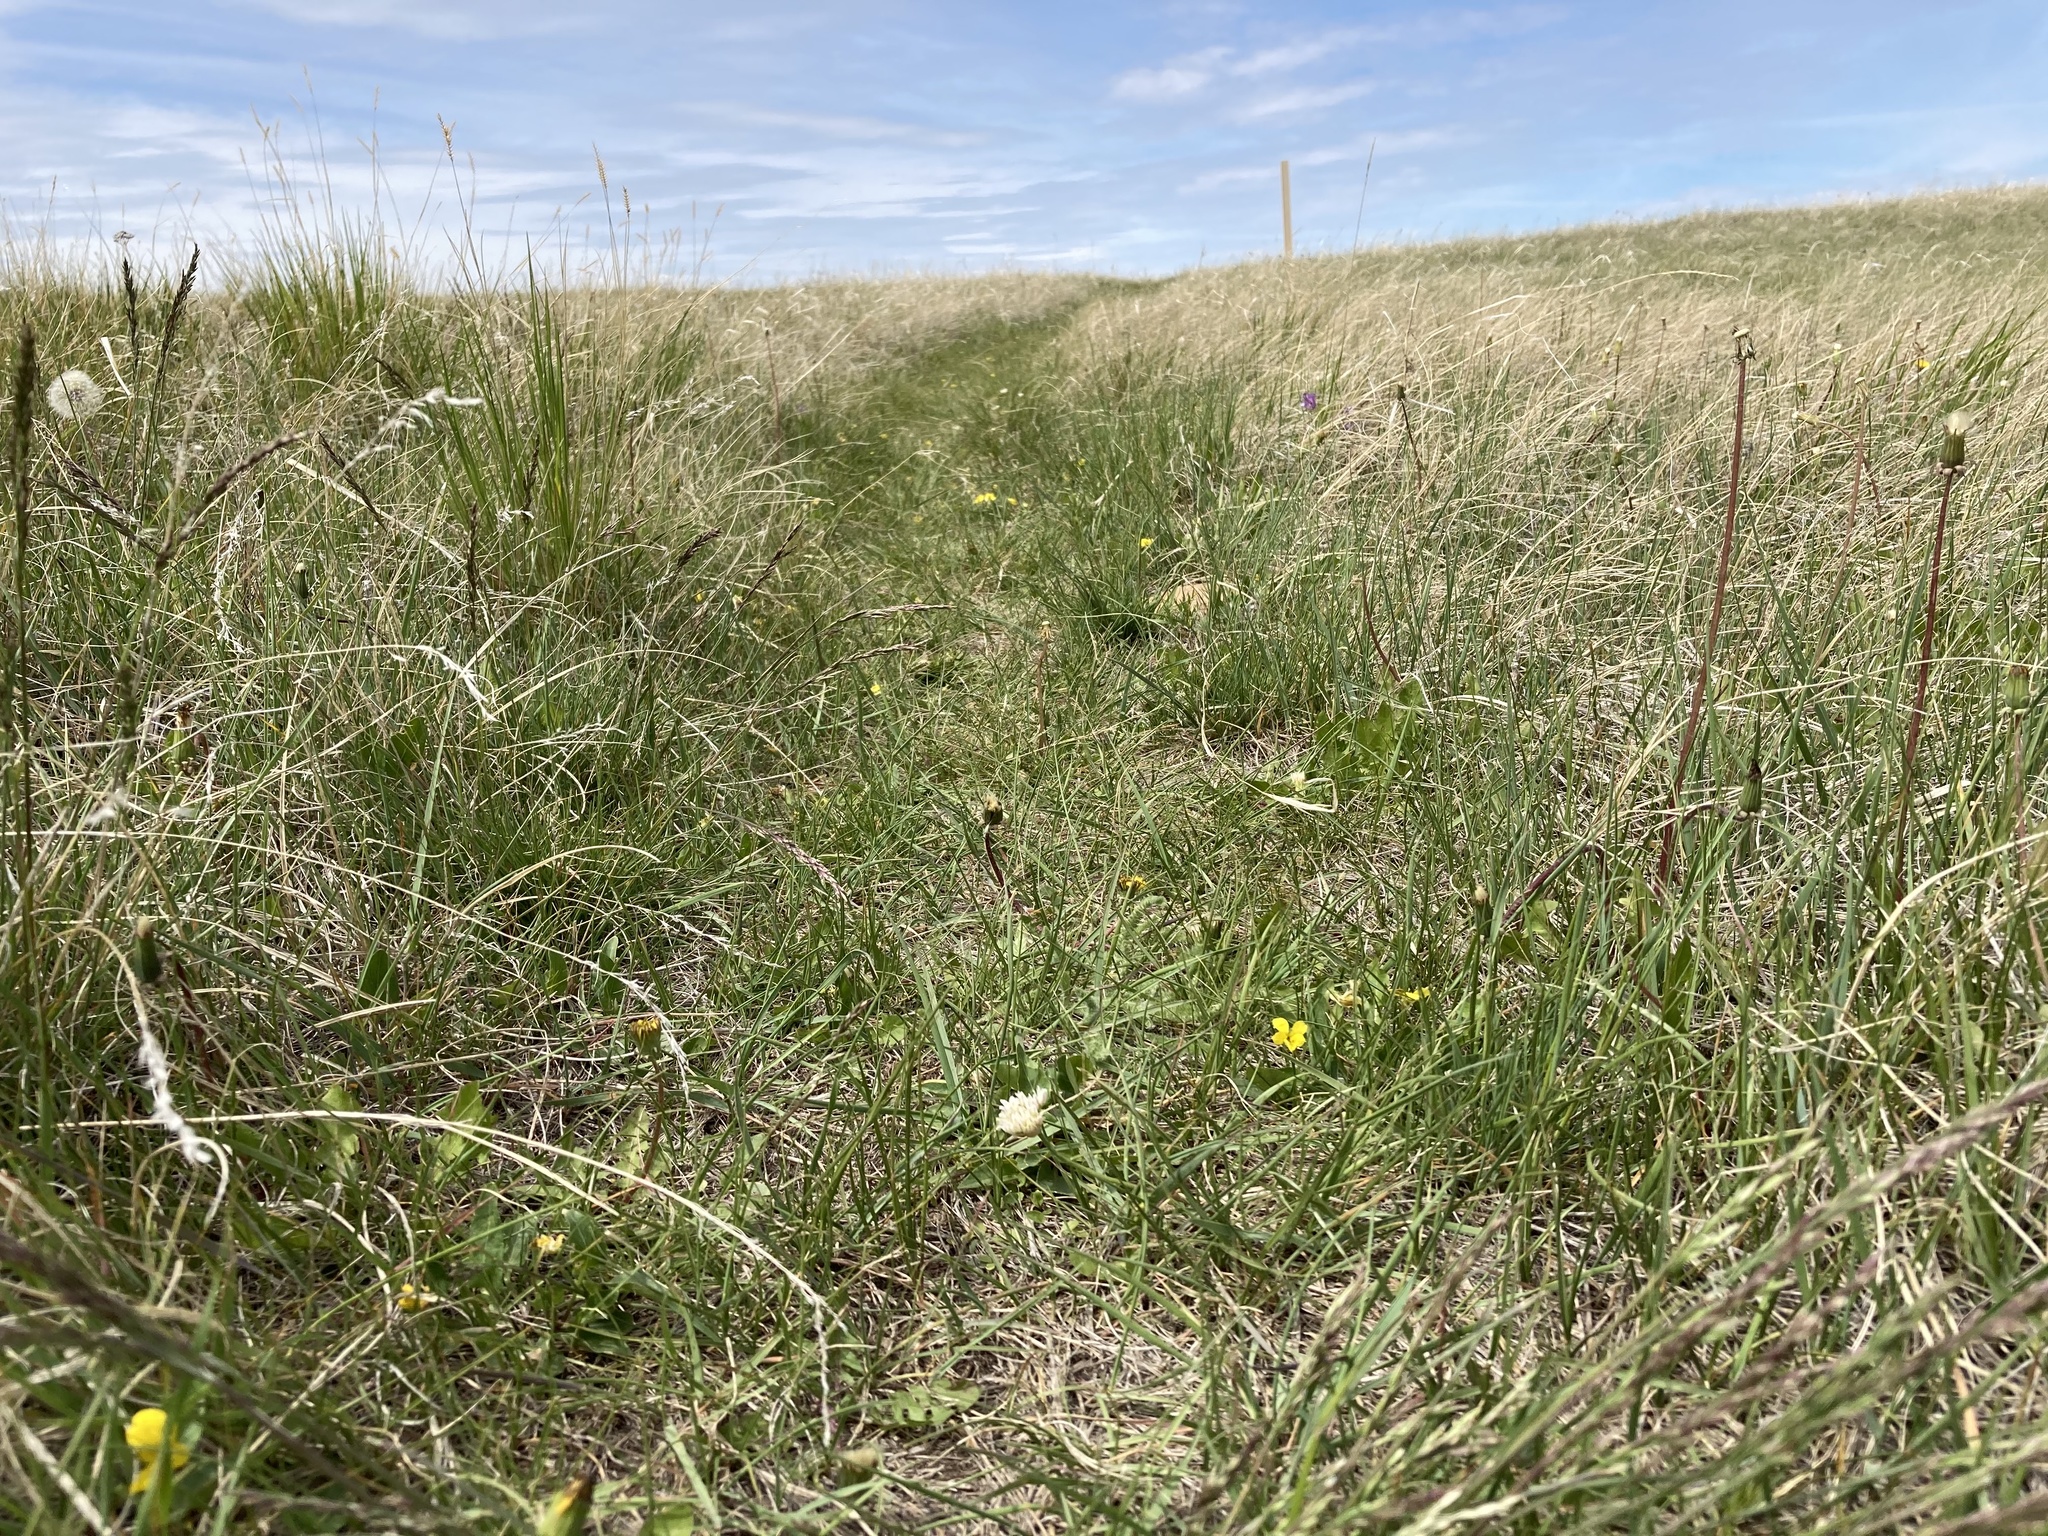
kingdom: Plantae
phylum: Tracheophyta
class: Magnoliopsida
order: Malpighiales
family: Violaceae
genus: Viola
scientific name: Viola nuttallii
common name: Yellow prairie violet
